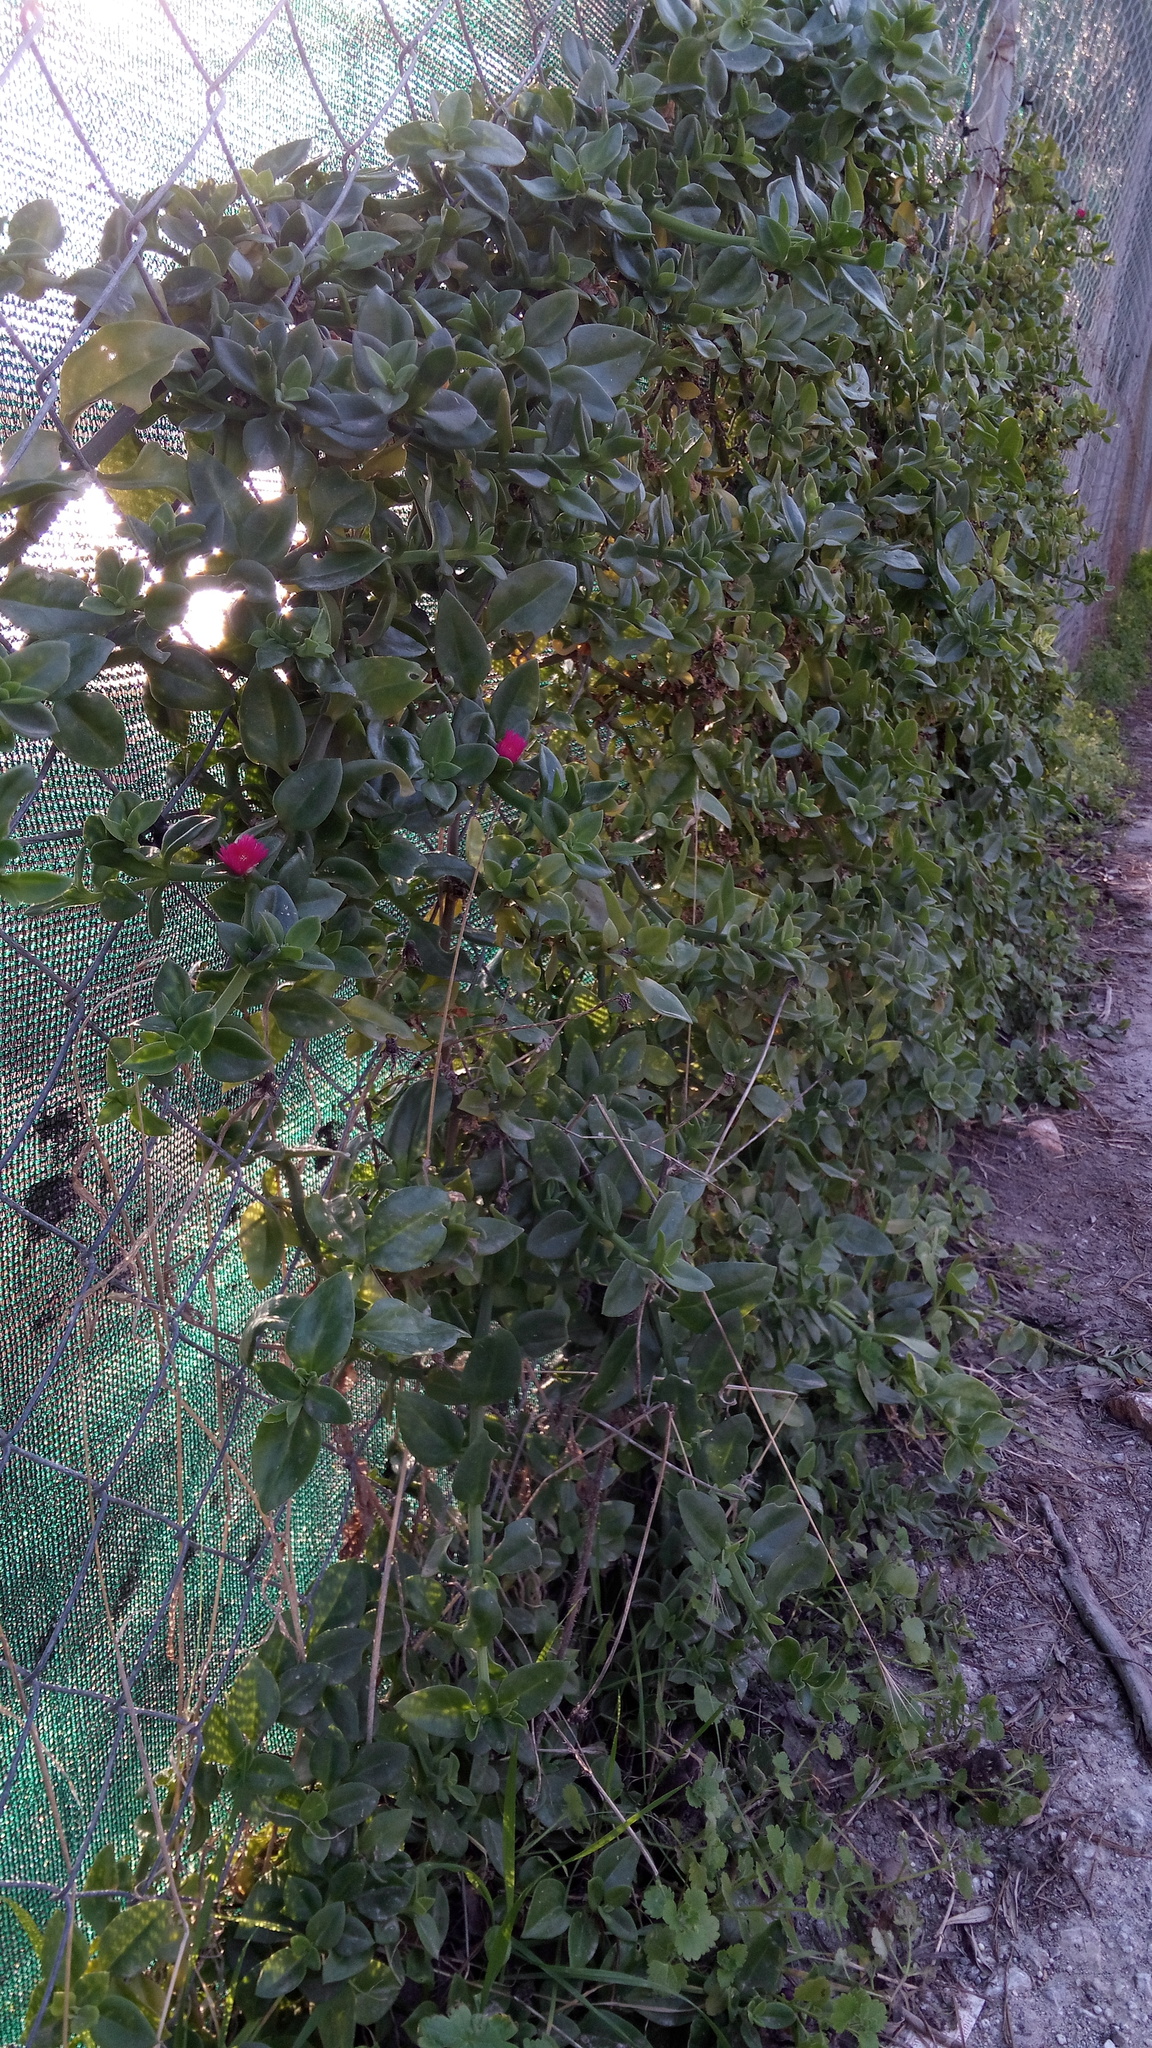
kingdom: Plantae
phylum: Tracheophyta
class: Magnoliopsida
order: Caryophyllales
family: Aizoaceae
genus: Mesembryanthemum
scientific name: Mesembryanthemum cordifolium
